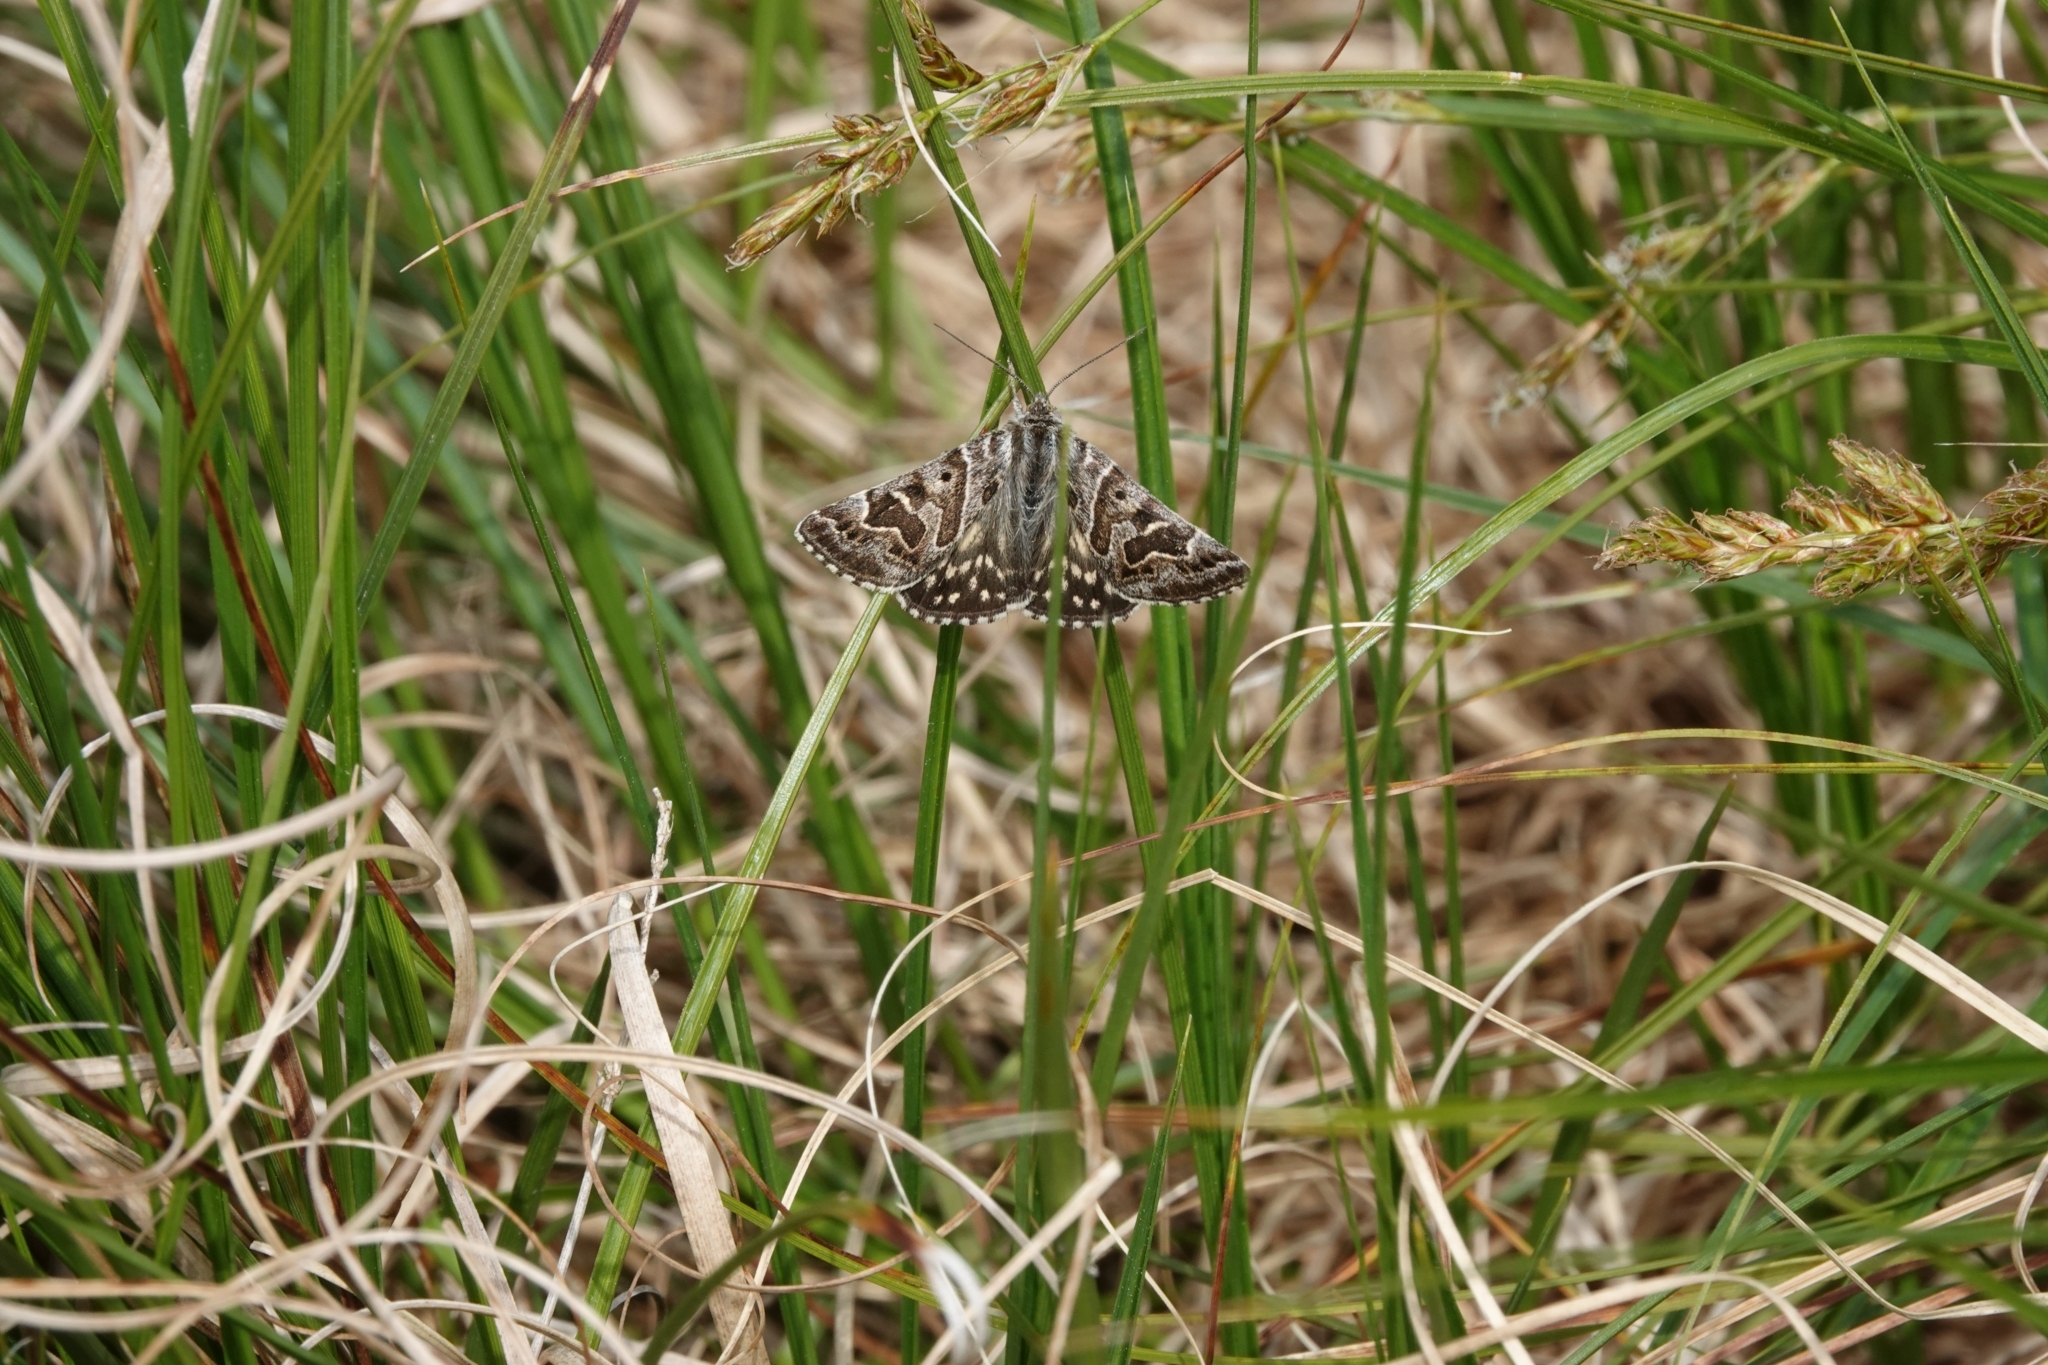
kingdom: Animalia
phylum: Arthropoda
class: Insecta
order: Lepidoptera
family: Erebidae
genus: Callistege
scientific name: Callistege mi
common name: Mother shipton
